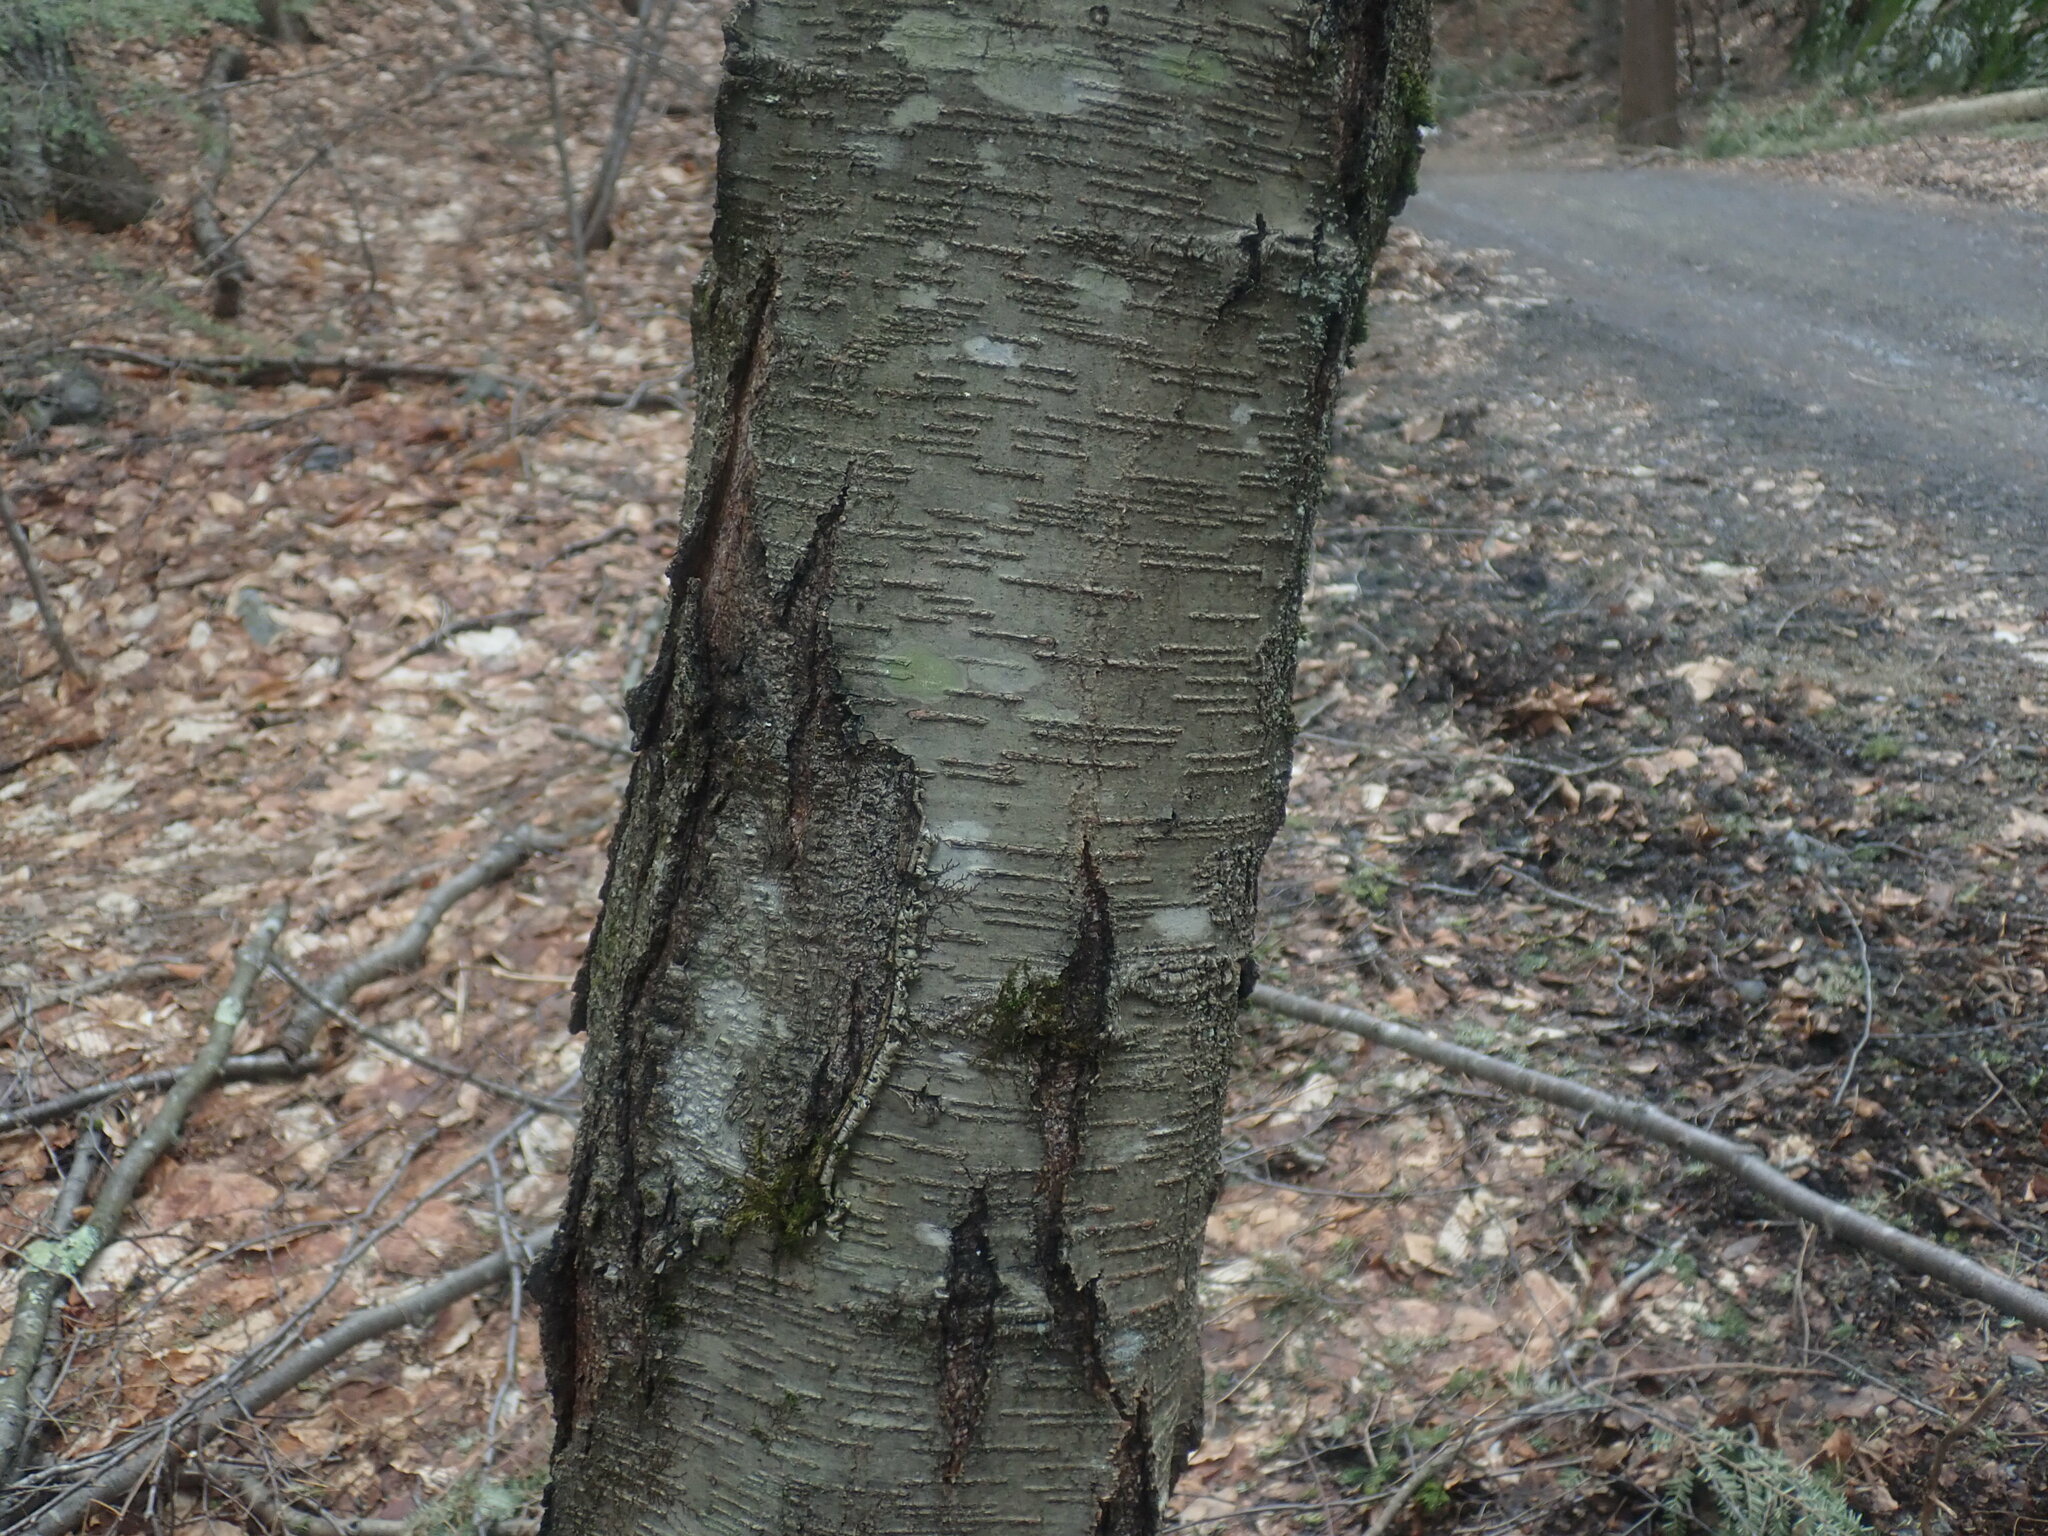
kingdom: Plantae
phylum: Tracheophyta
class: Magnoliopsida
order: Fagales
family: Betulaceae
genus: Betula
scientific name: Betula lenta
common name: Black birch
